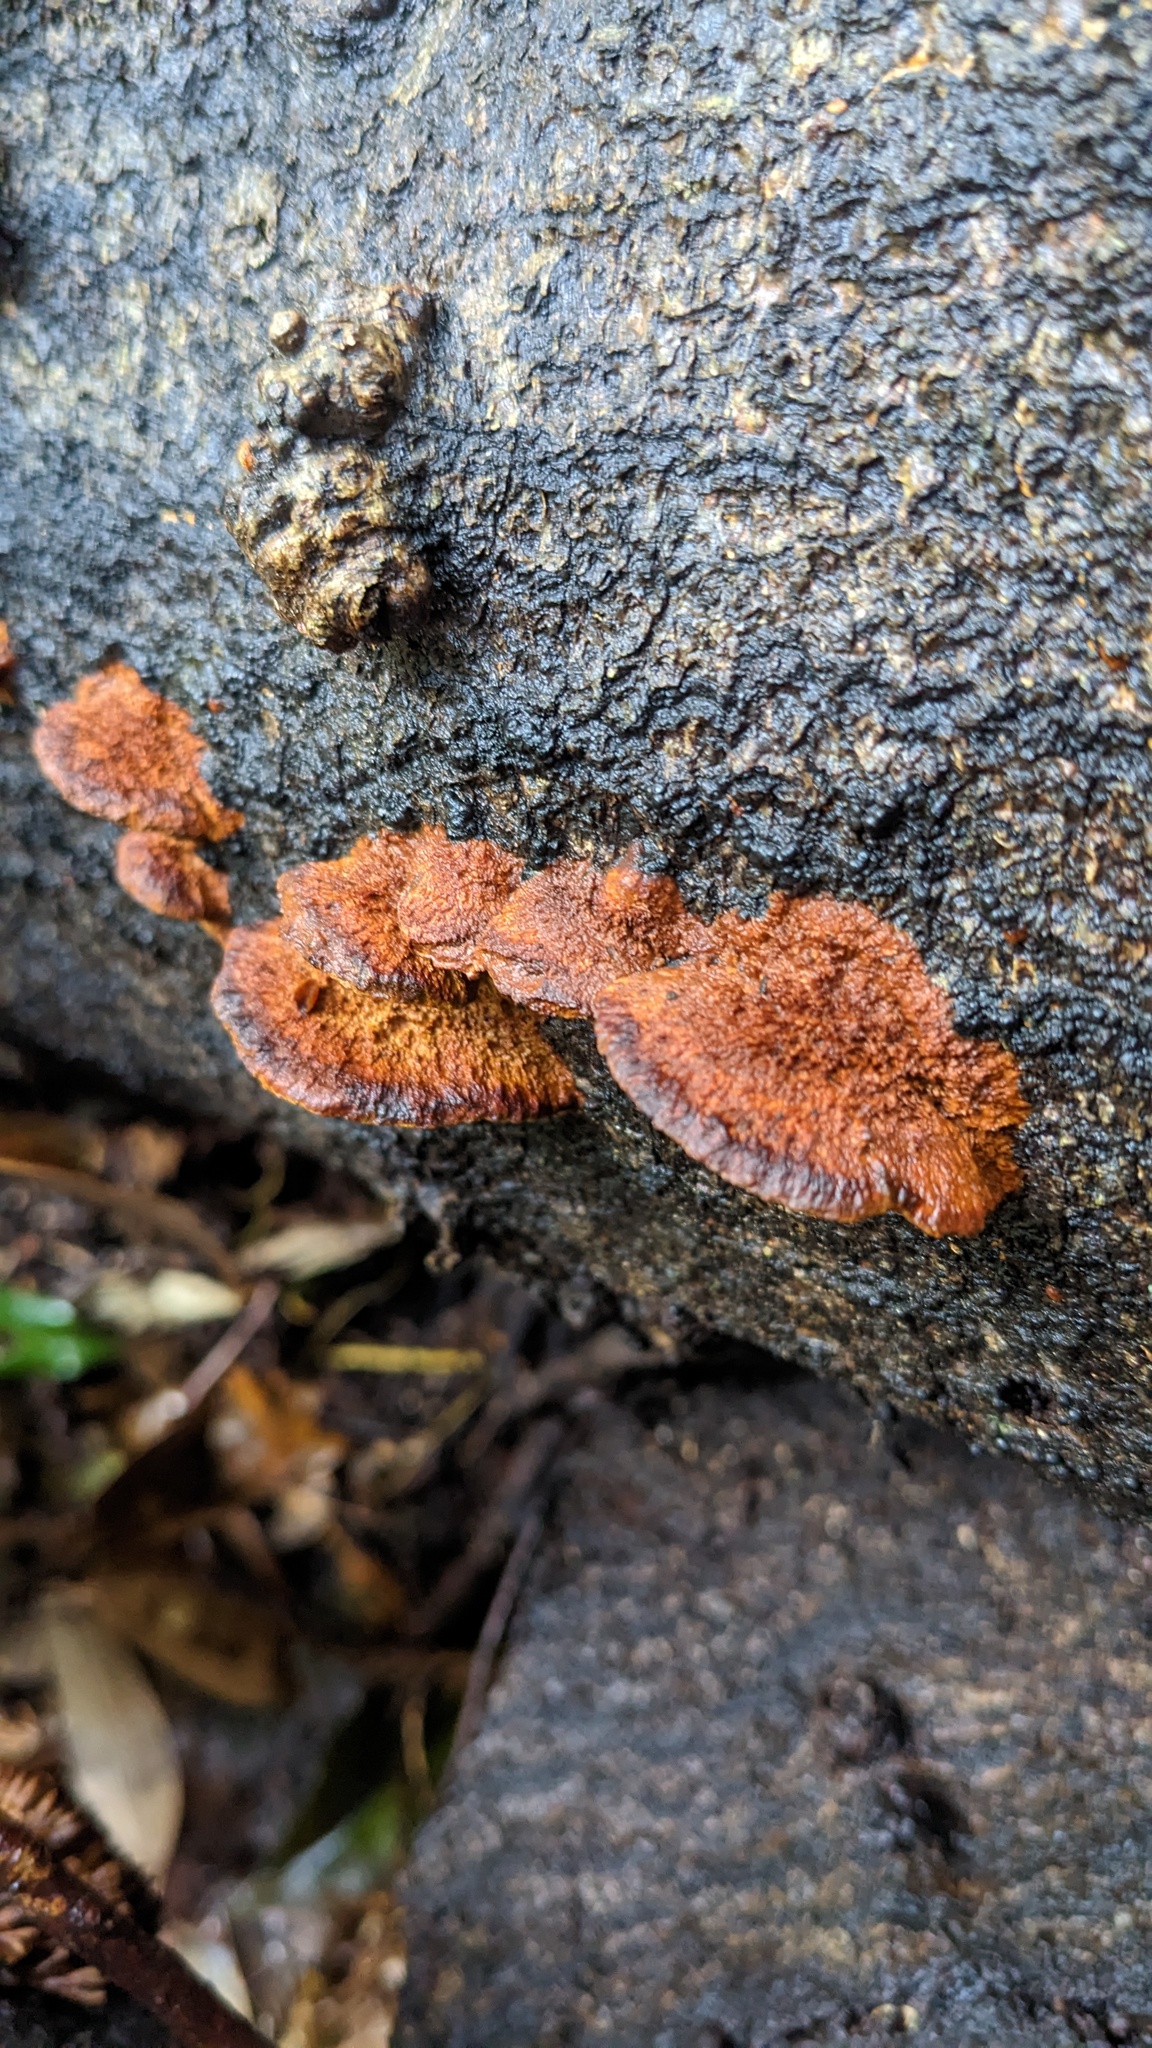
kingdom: Fungi
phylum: Basidiomycota
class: Agaricomycetes
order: Hymenochaetales
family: Hymenochaetaceae
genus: Phellinus
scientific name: Phellinus gilvus
